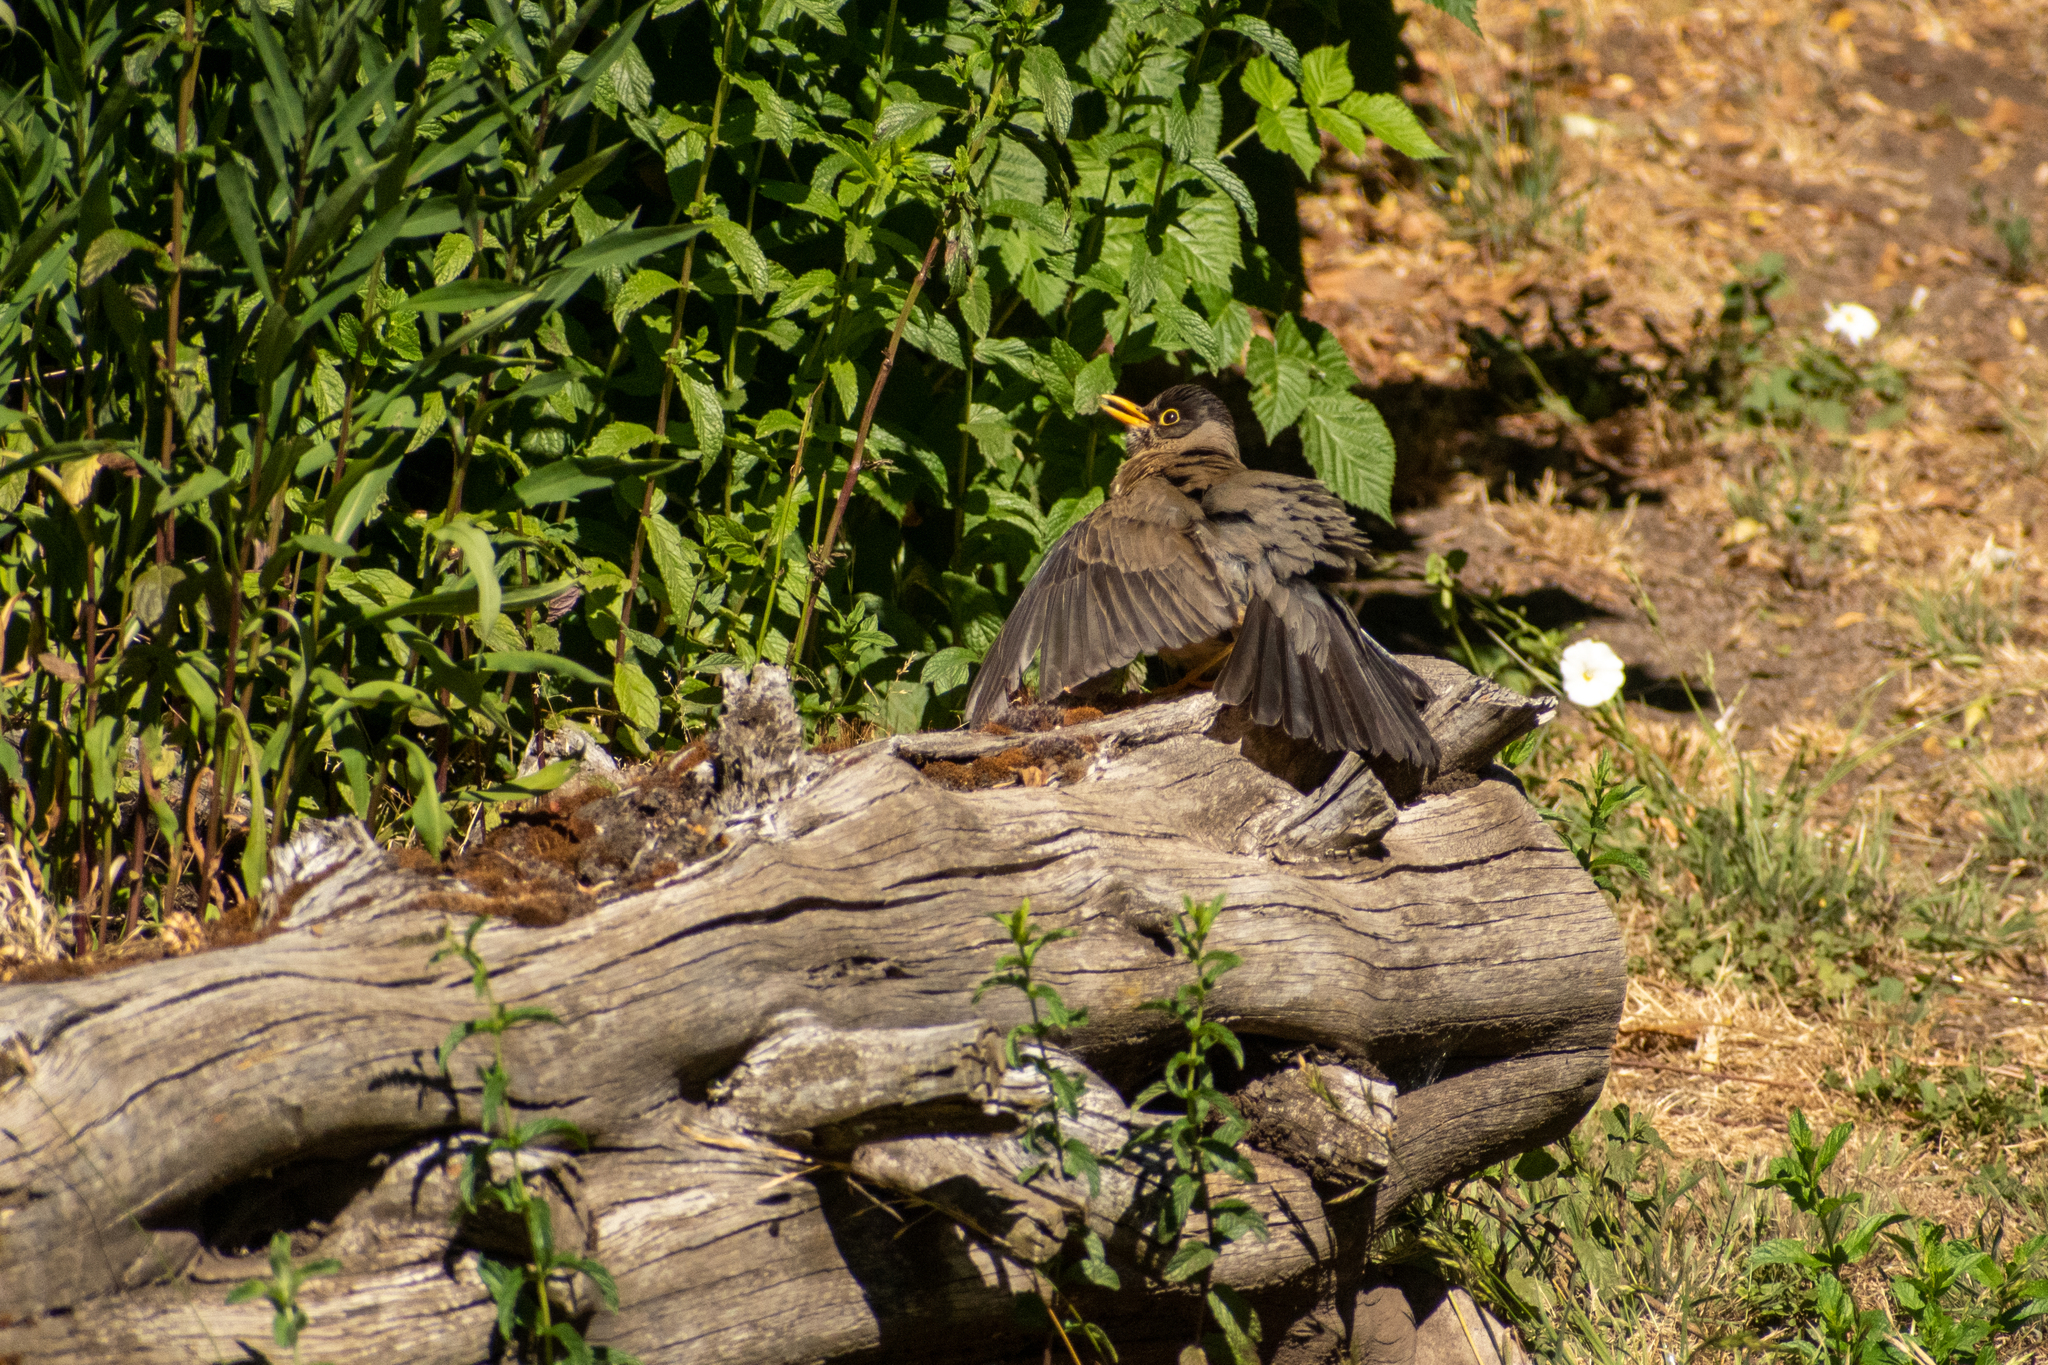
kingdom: Animalia
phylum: Chordata
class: Aves
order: Passeriformes
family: Turdidae
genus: Turdus
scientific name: Turdus falcklandii
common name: Austral thrush
